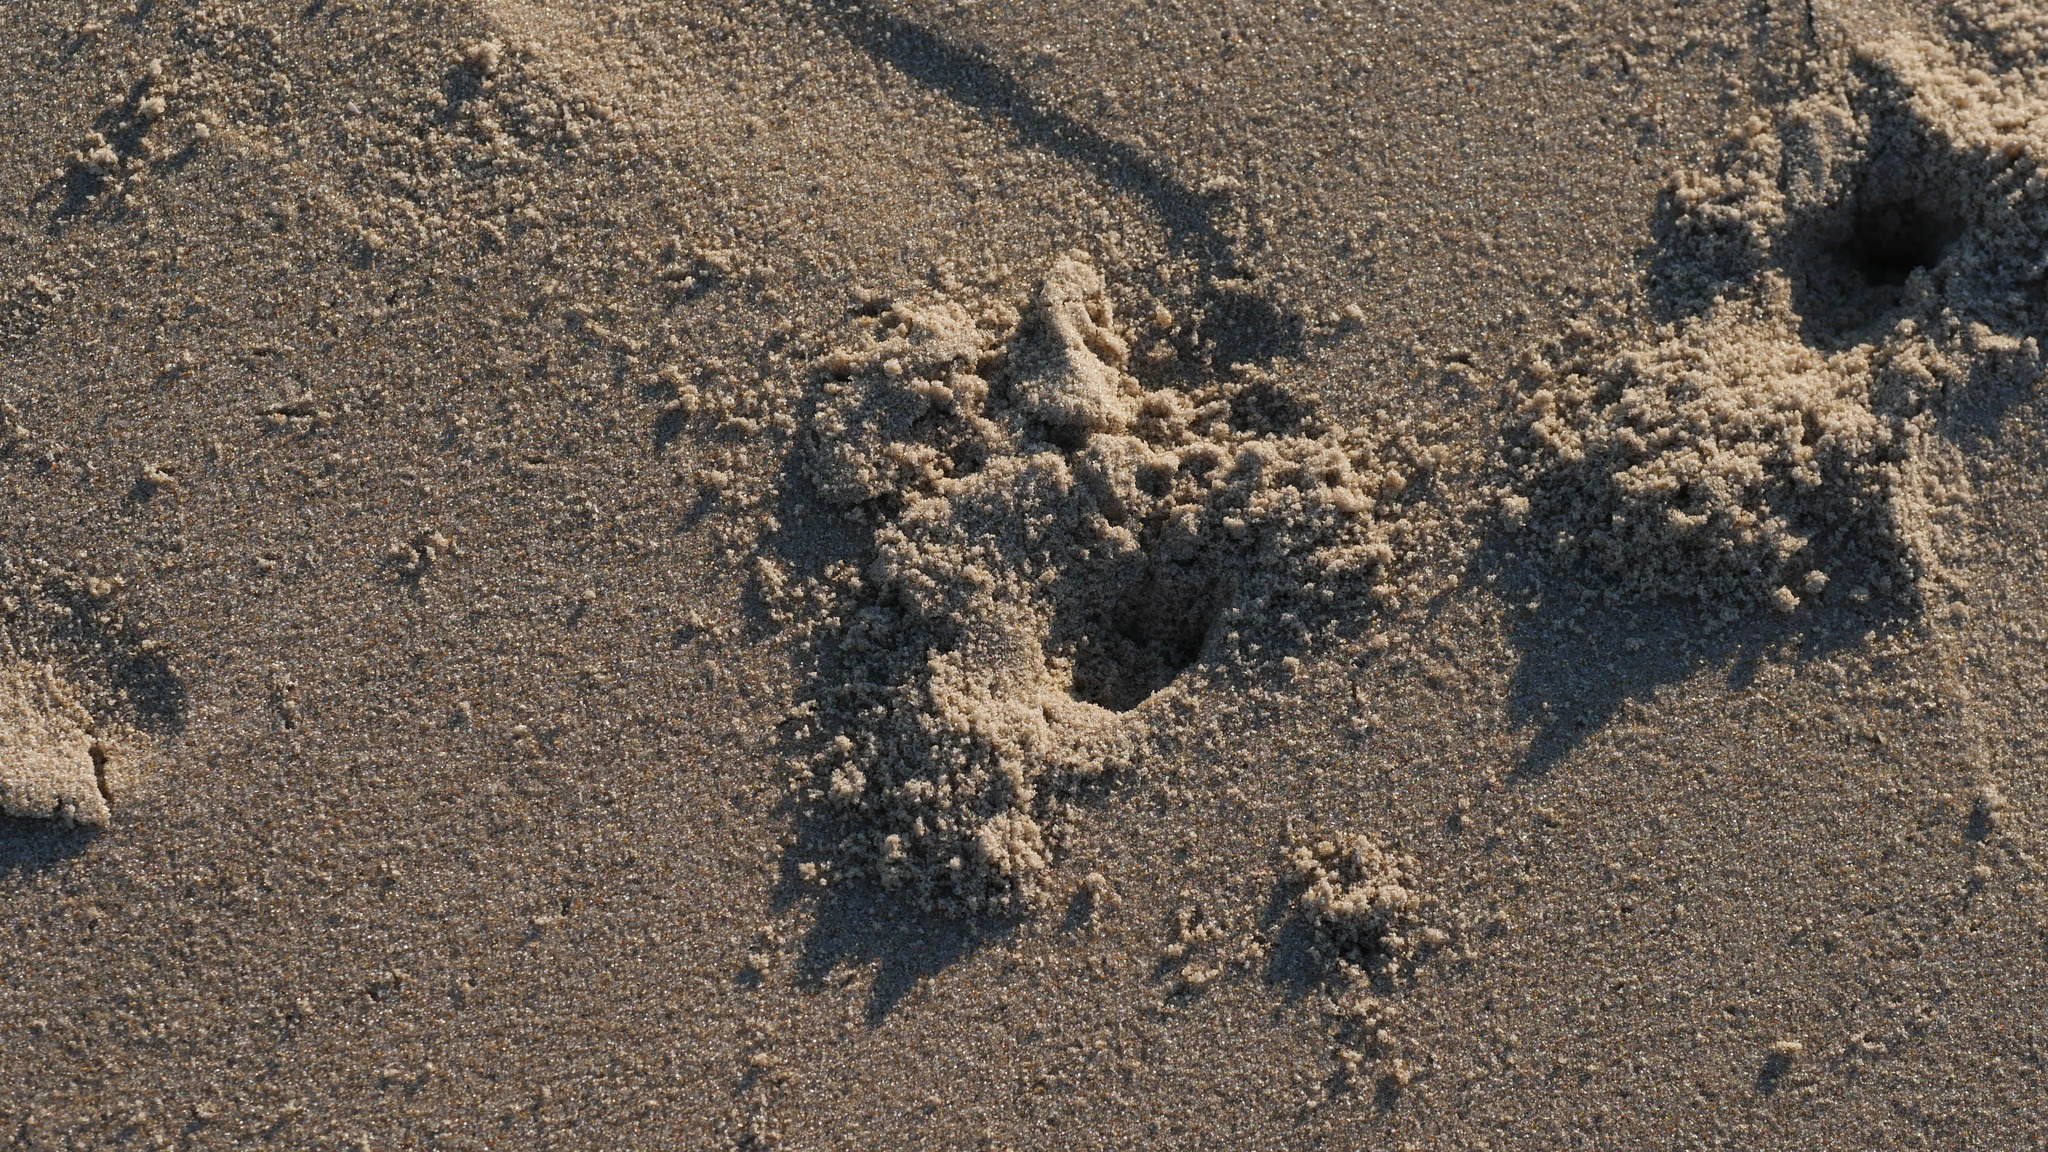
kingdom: Animalia
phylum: Arthropoda
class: Malacostraca
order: Decapoda
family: Ocypodidae
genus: Ocypode
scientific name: Ocypode quadrata
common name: Ghost crab
